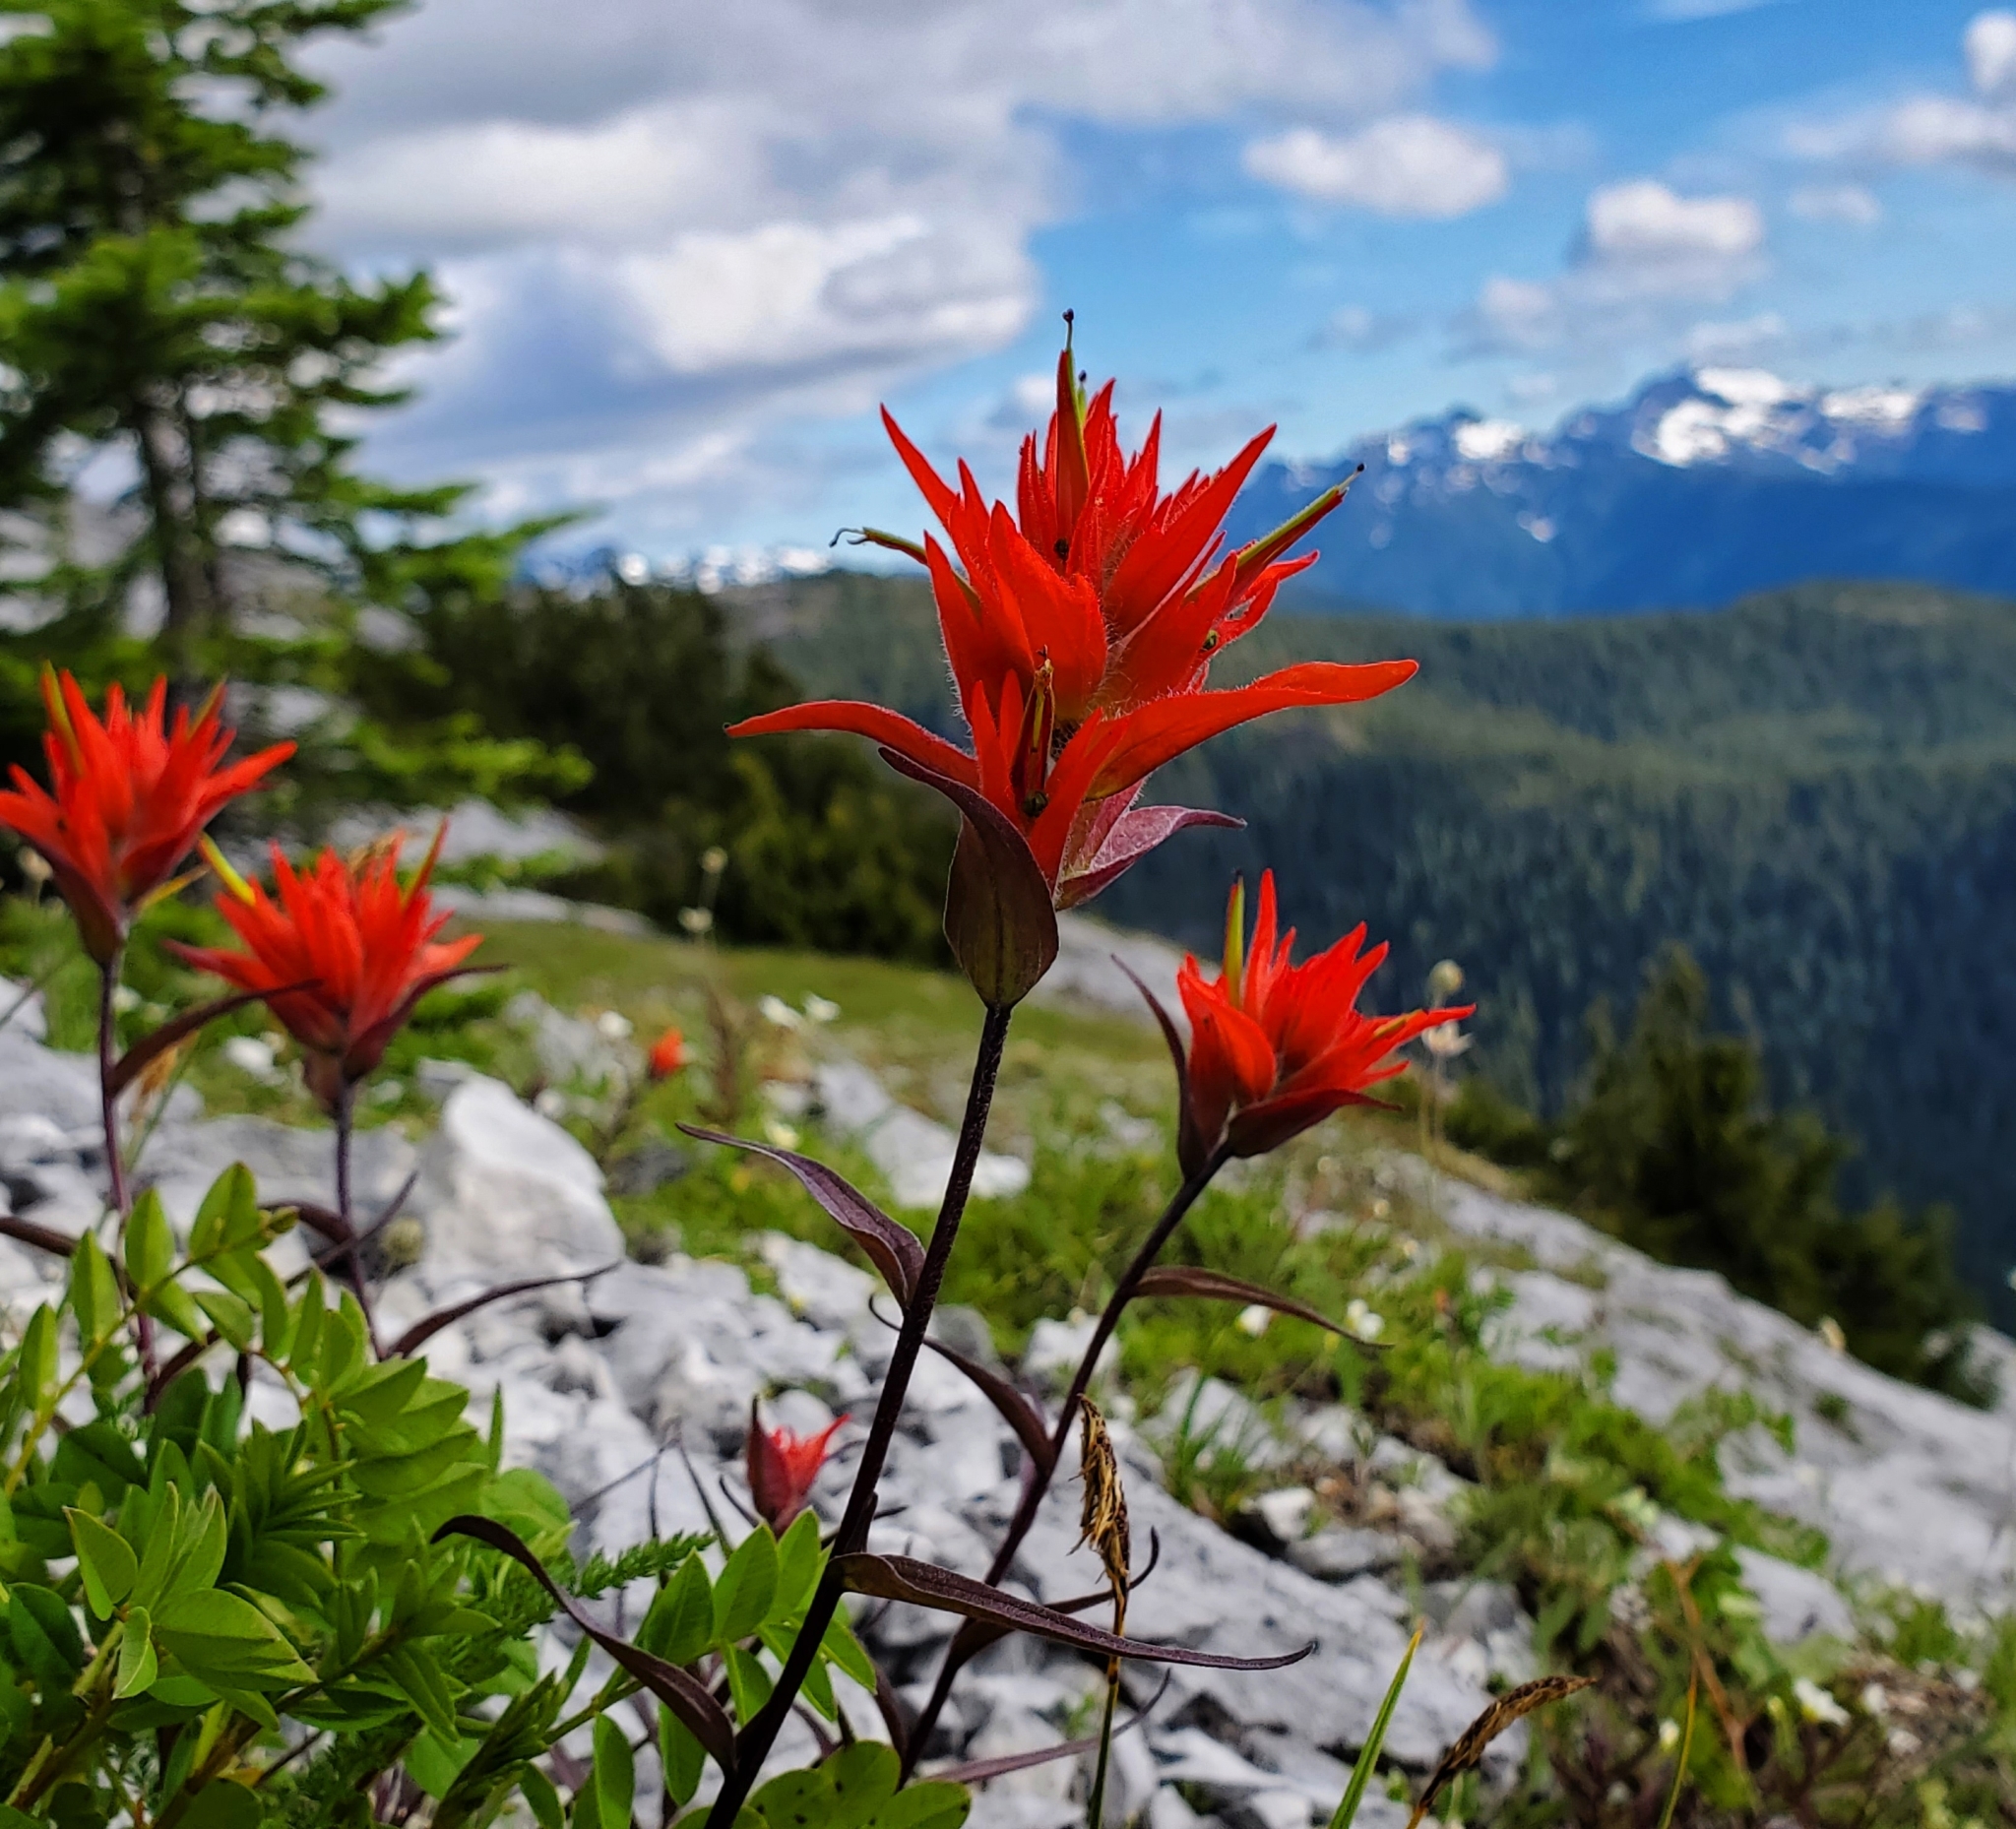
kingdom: Plantae
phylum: Tracheophyta
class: Magnoliopsida
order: Lamiales
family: Orobanchaceae
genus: Castilleja
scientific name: Castilleja miniata
